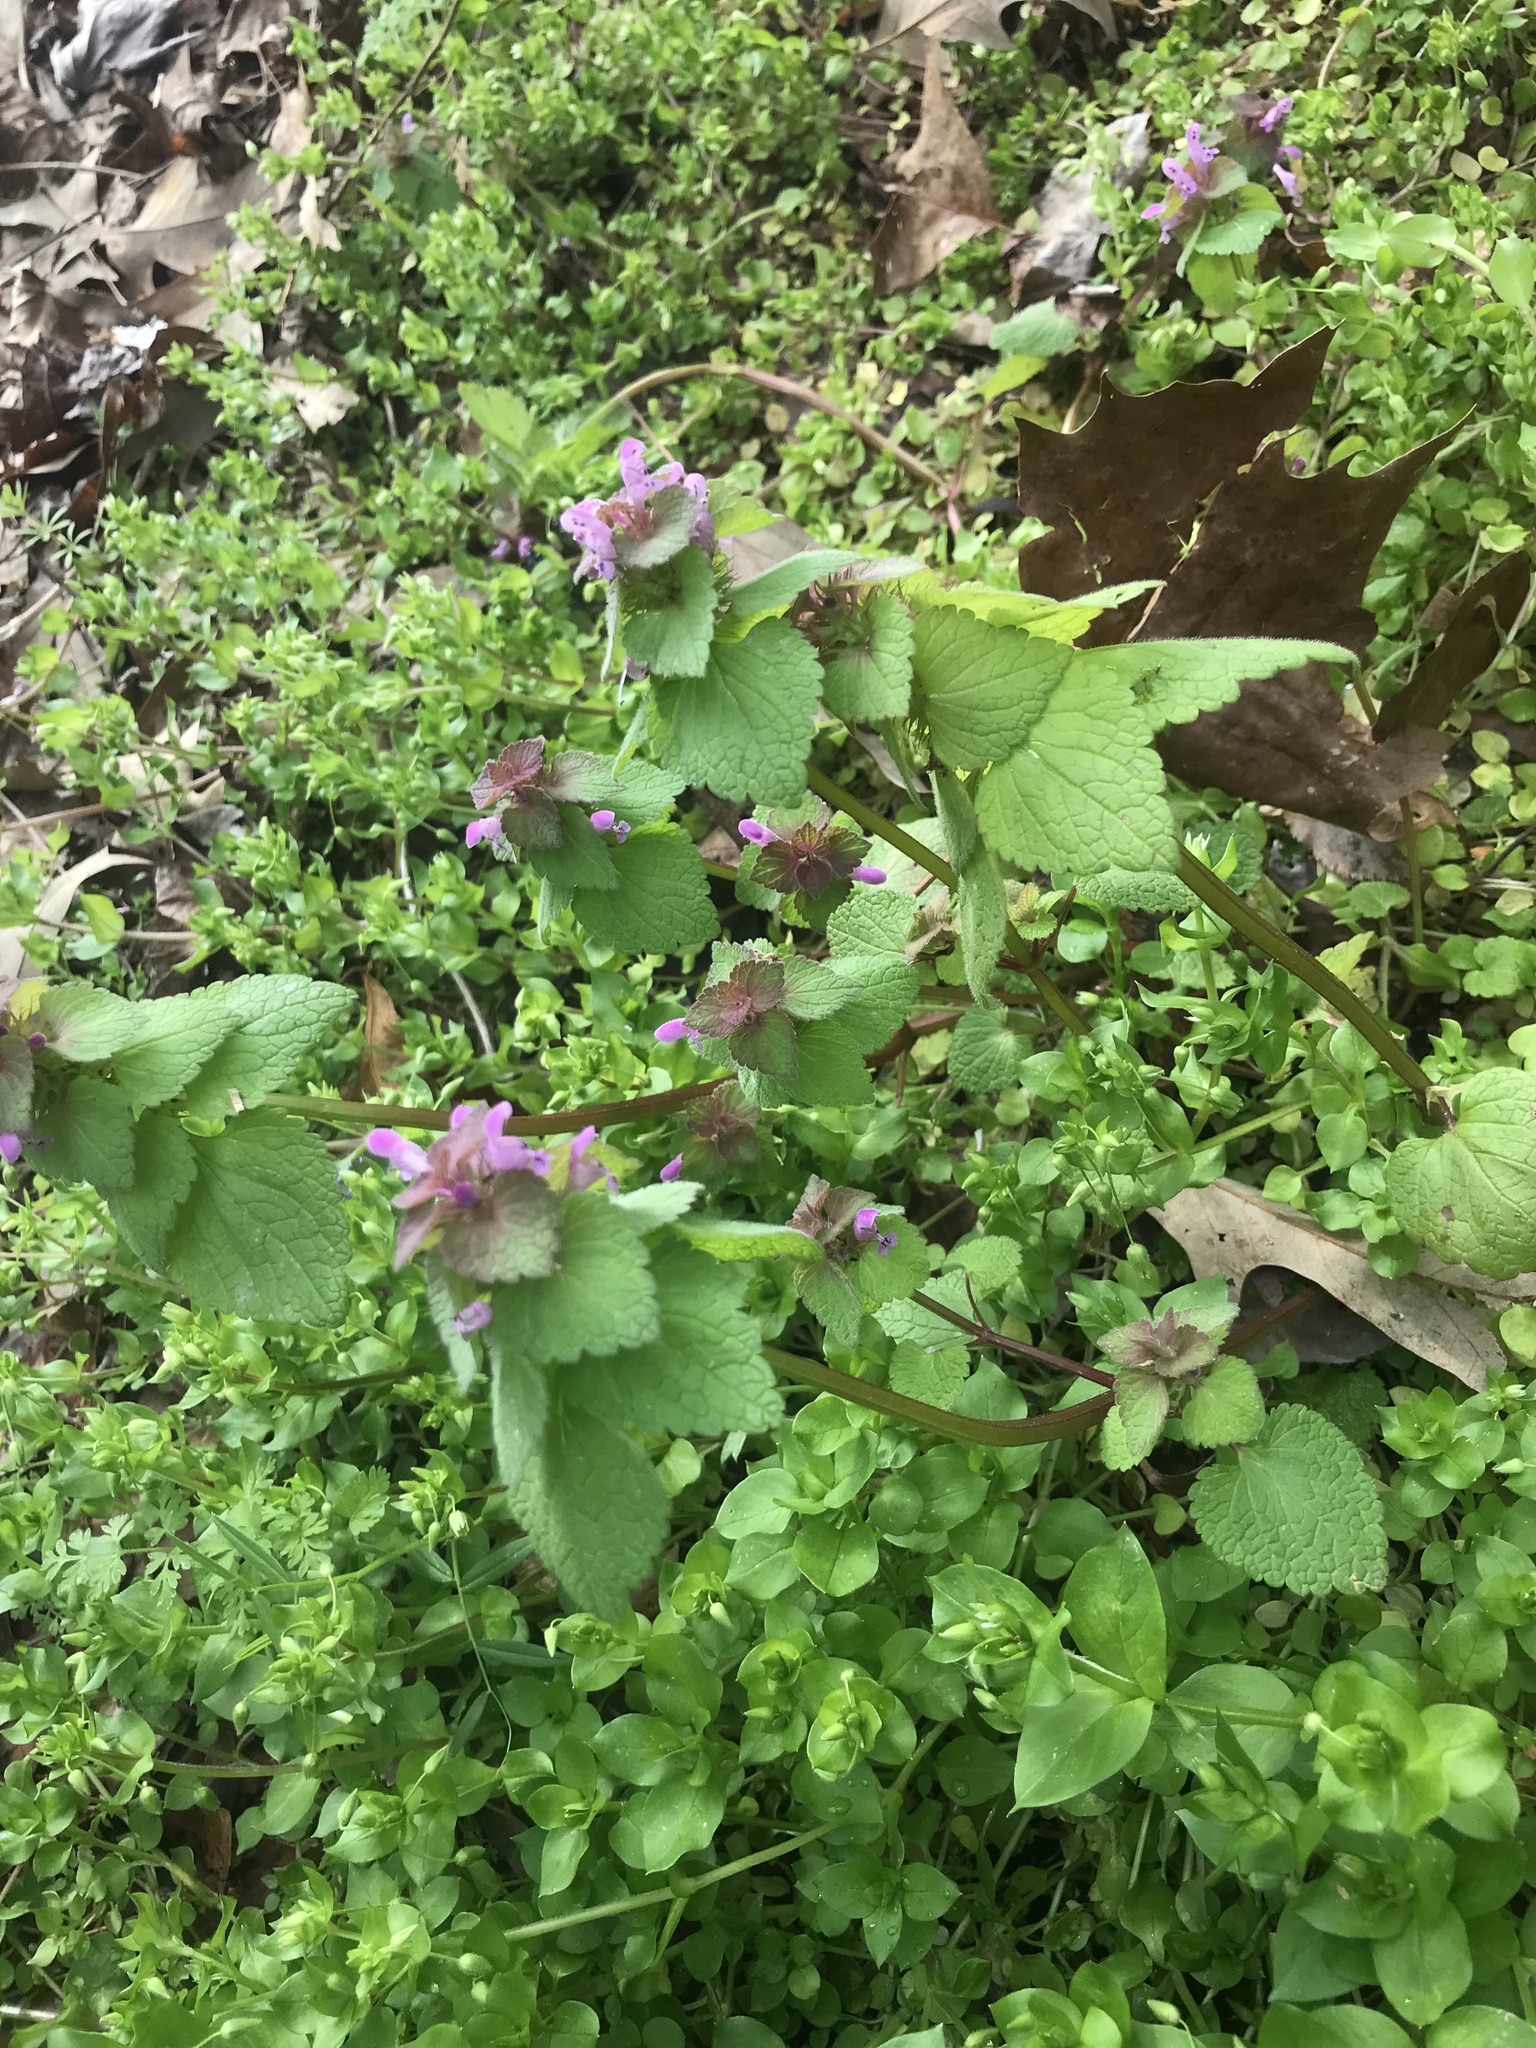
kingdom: Plantae
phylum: Tracheophyta
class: Magnoliopsida
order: Lamiales
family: Lamiaceae
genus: Lamium
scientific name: Lamium purpureum
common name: Red dead-nettle
